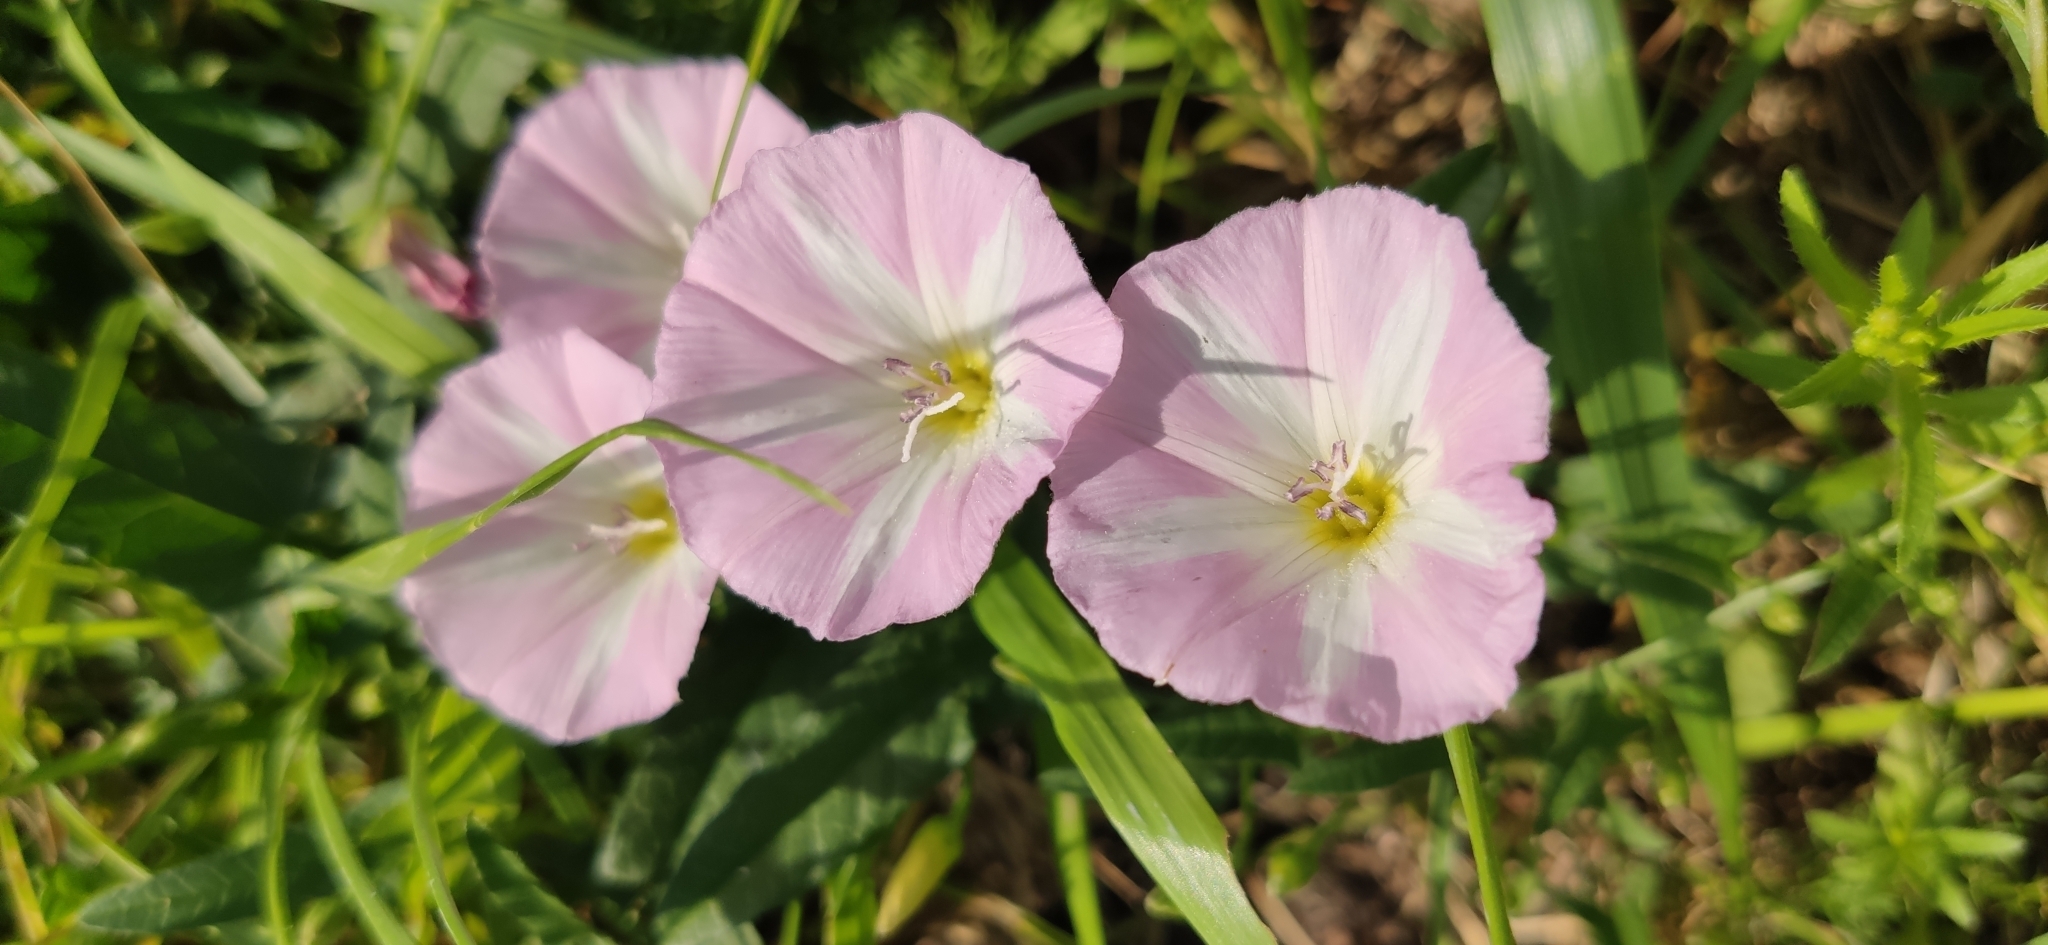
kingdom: Plantae
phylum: Tracheophyta
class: Magnoliopsida
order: Solanales
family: Convolvulaceae
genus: Convolvulus
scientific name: Convolvulus arvensis
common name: Field bindweed
